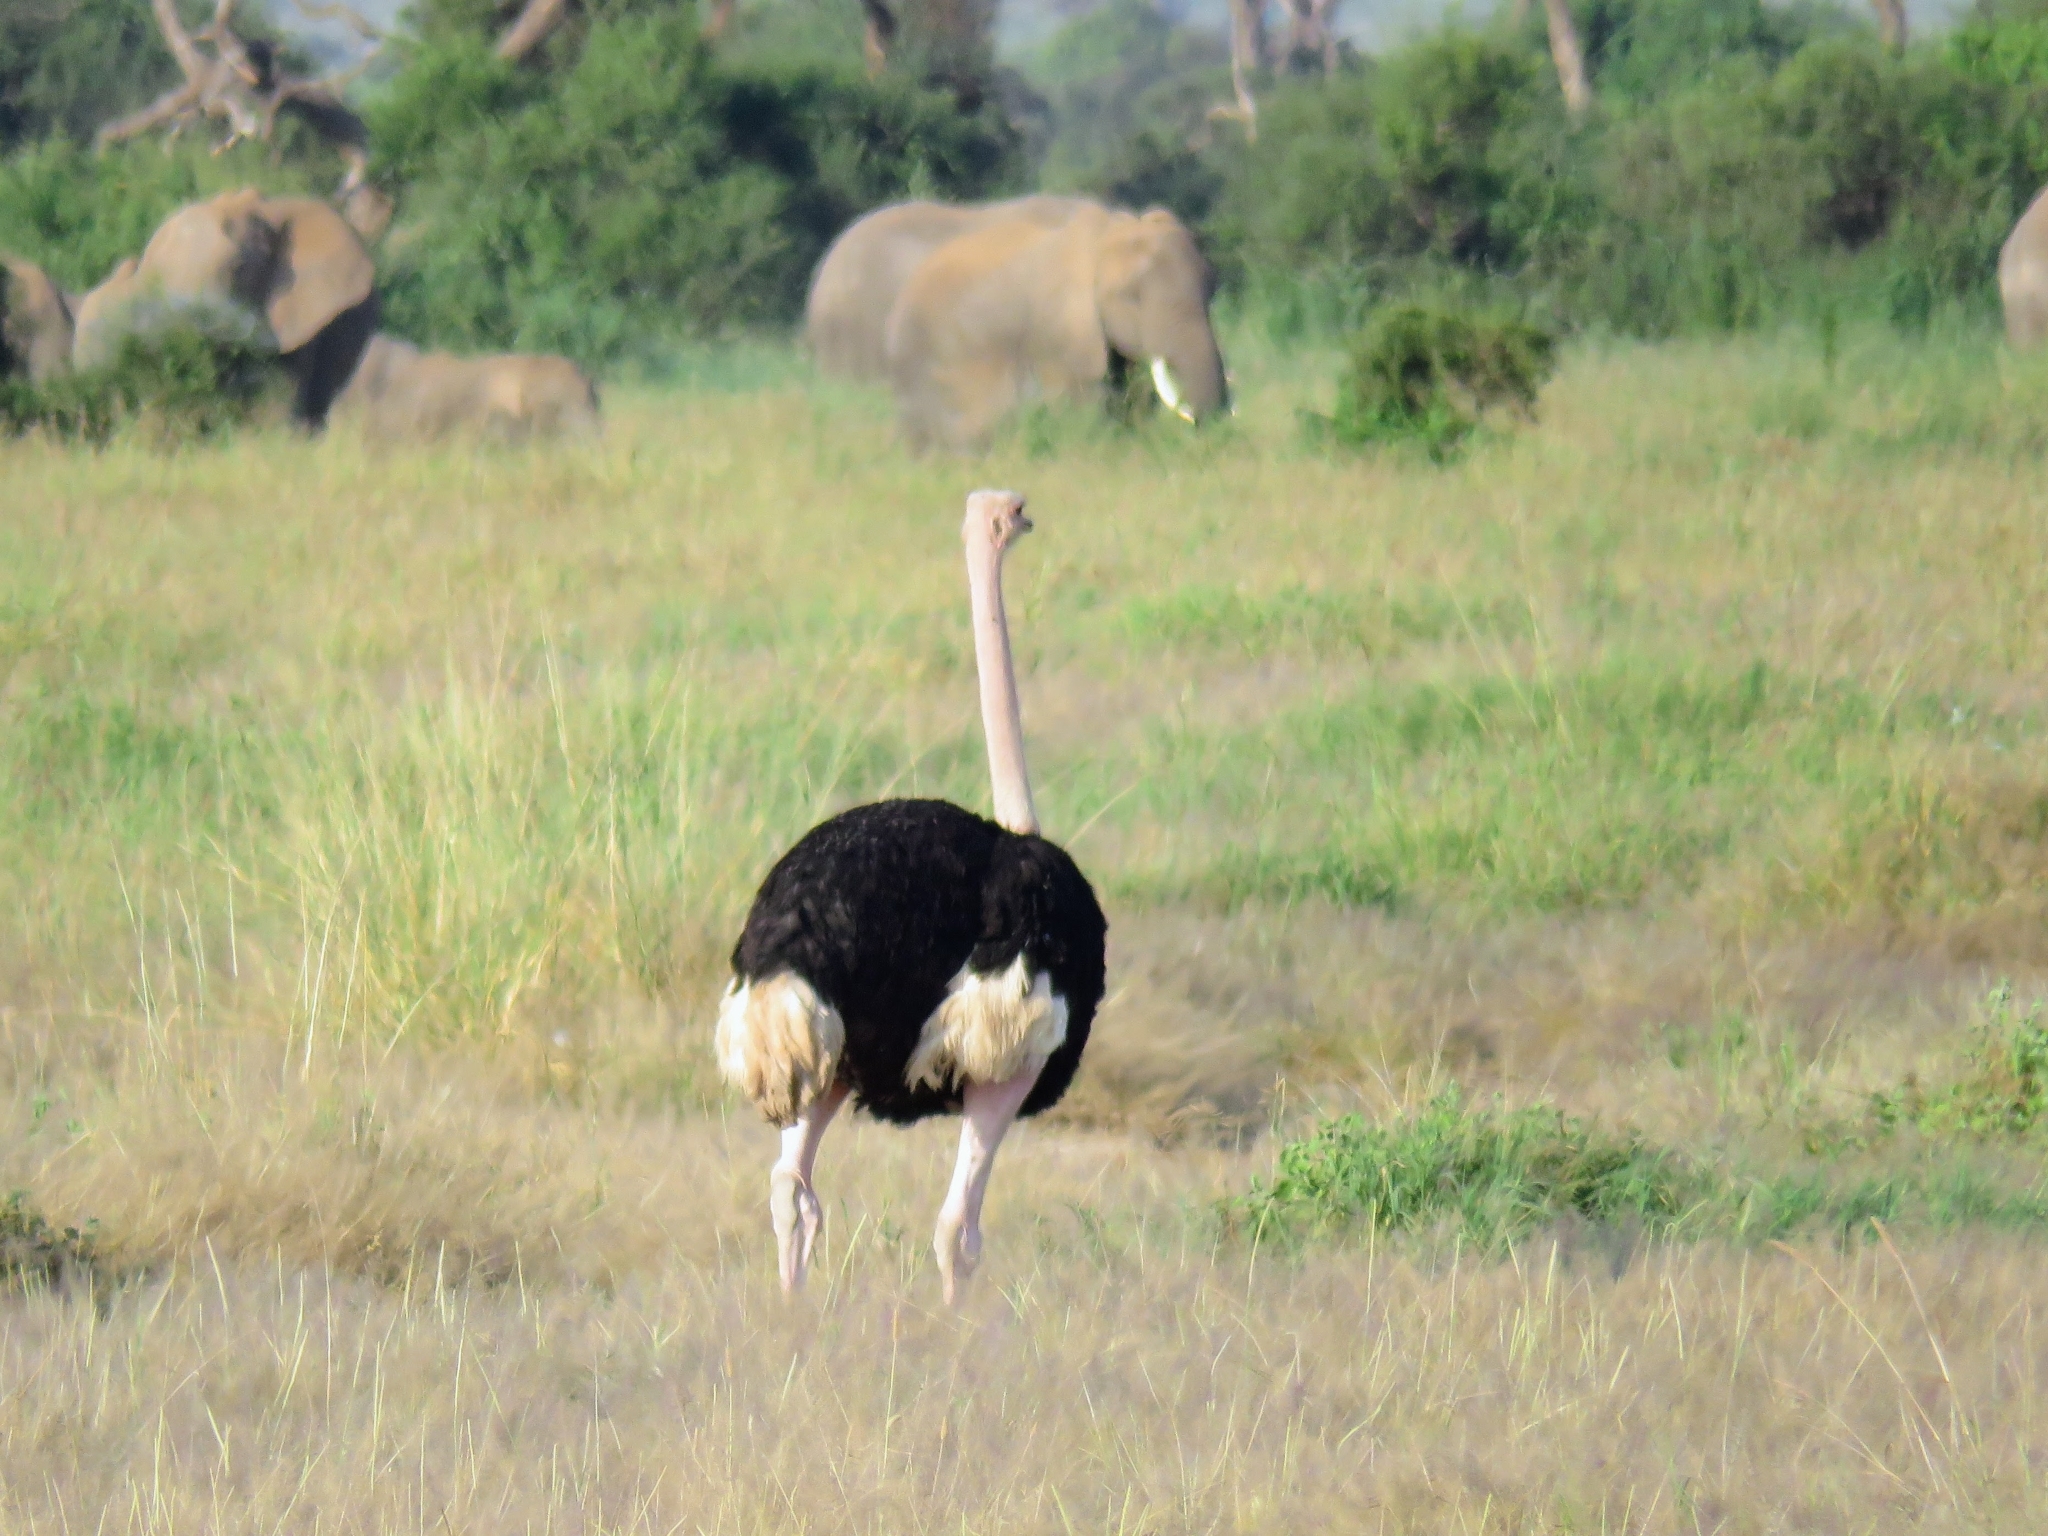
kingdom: Animalia
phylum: Chordata
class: Aves
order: Struthioniformes
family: Struthionidae
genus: Struthio
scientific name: Struthio camelus
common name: Common ostrich
